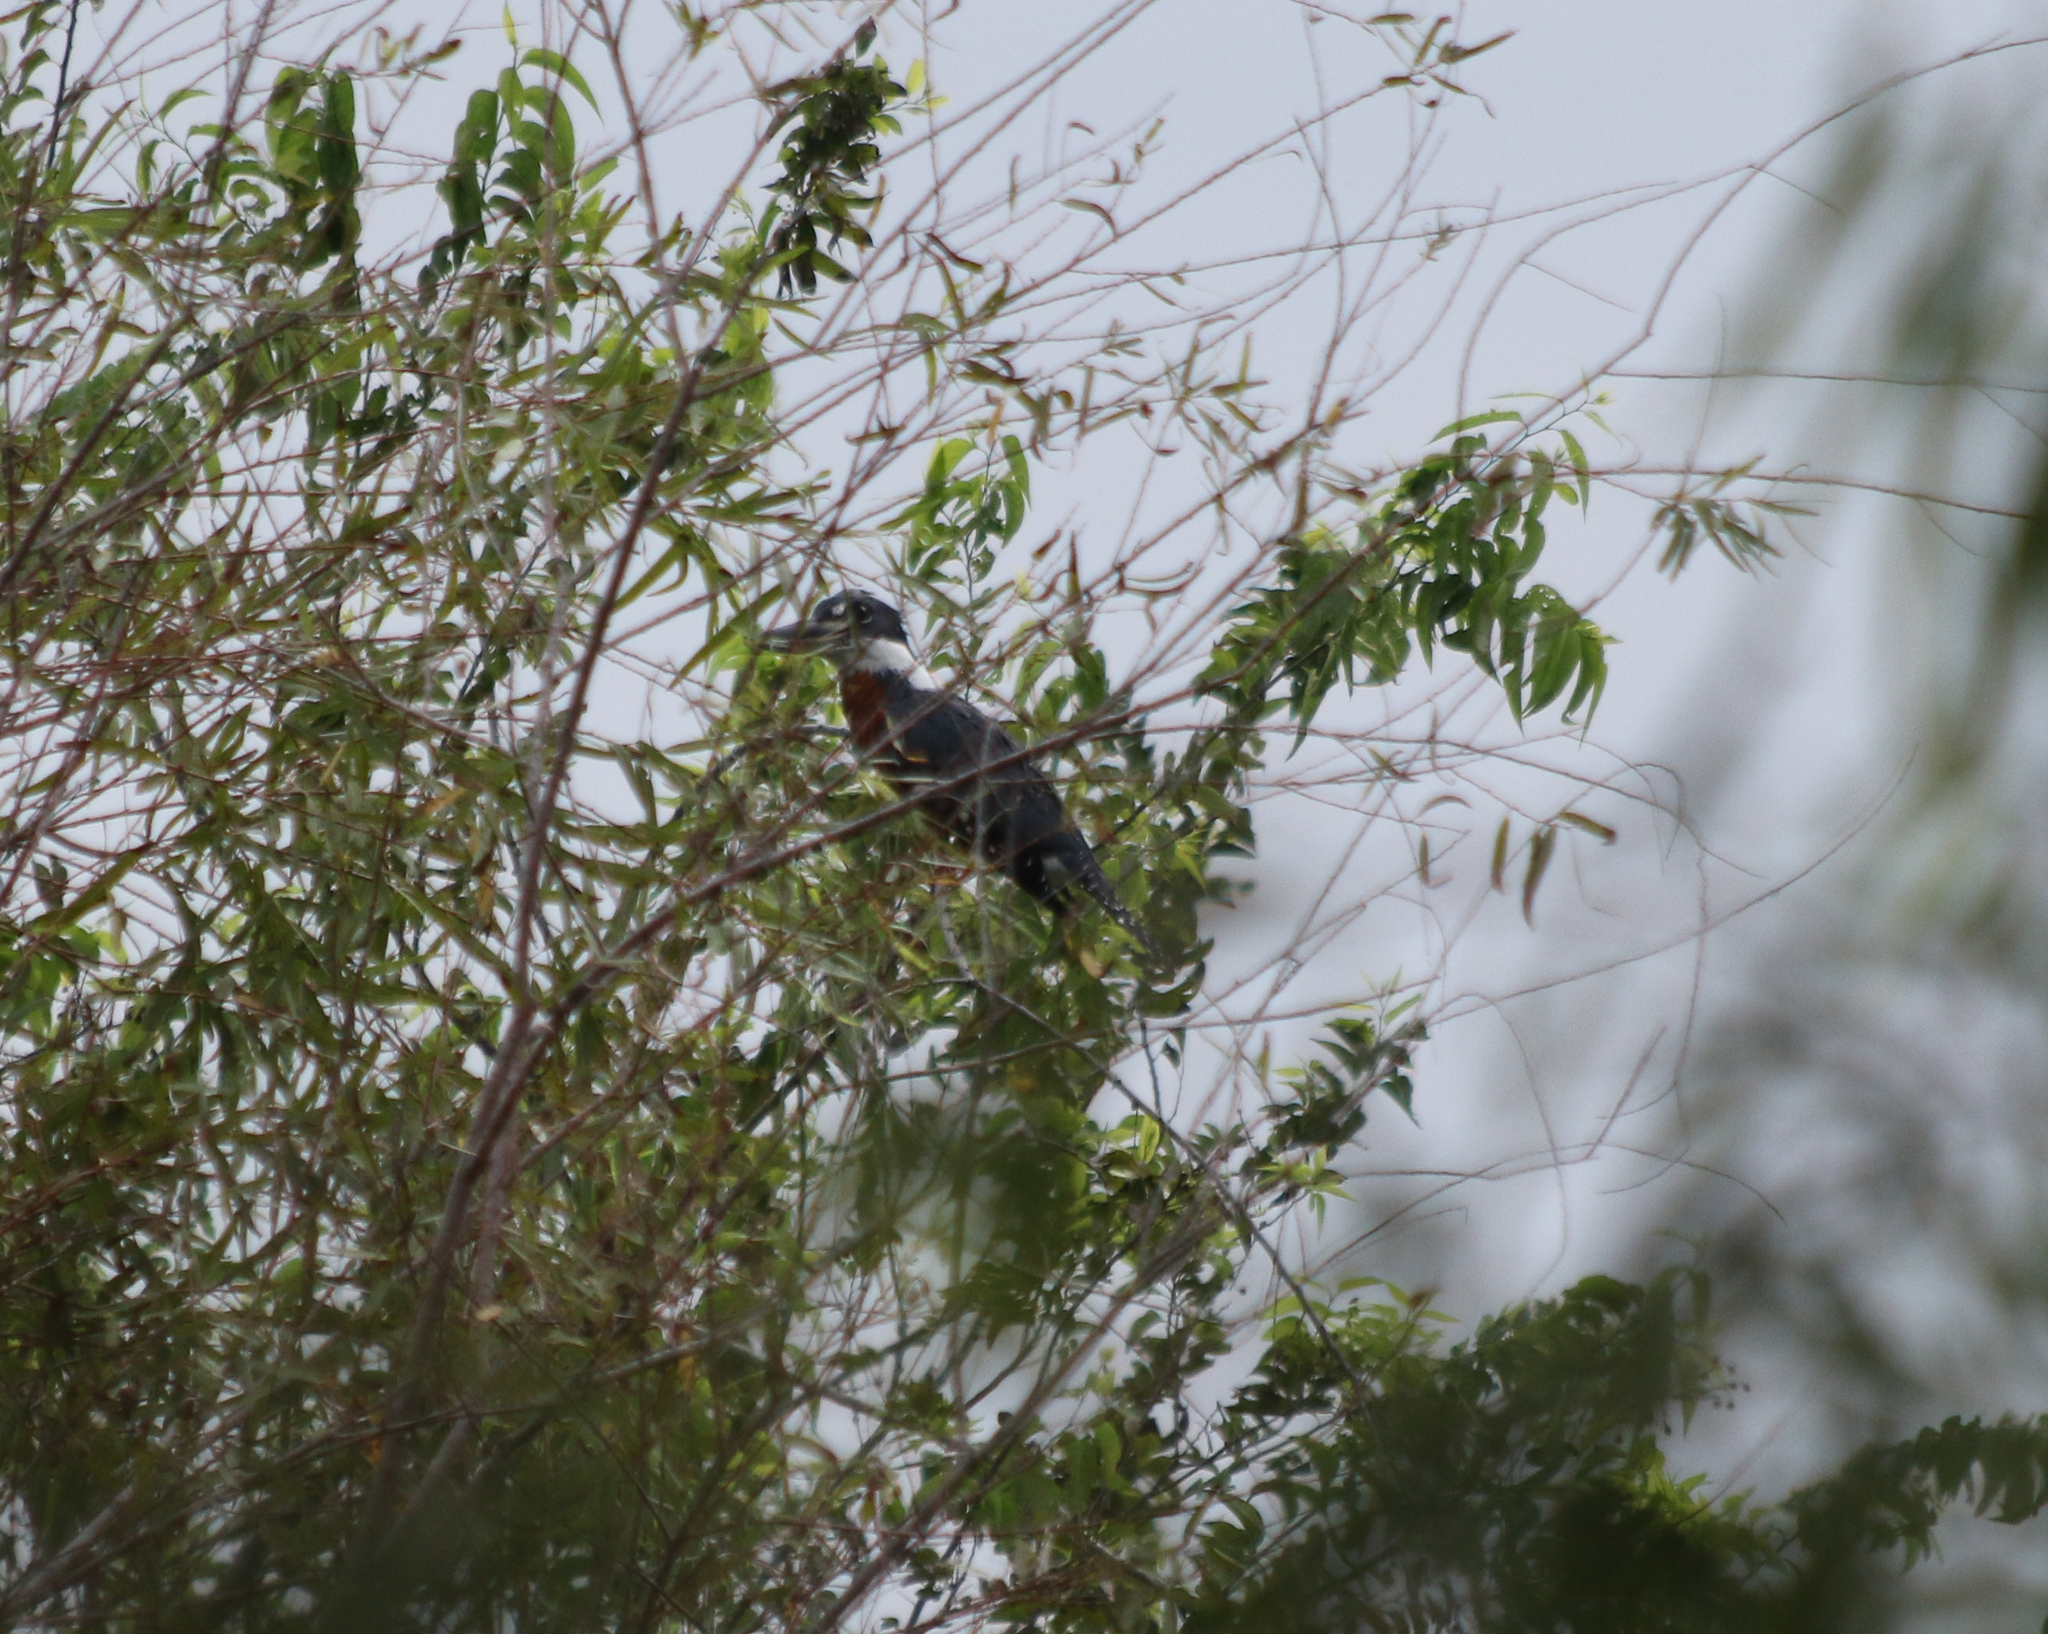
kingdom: Animalia
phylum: Chordata
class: Aves
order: Coraciiformes
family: Alcedinidae
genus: Megaceryle
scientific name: Megaceryle torquata
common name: Ringed kingfisher
